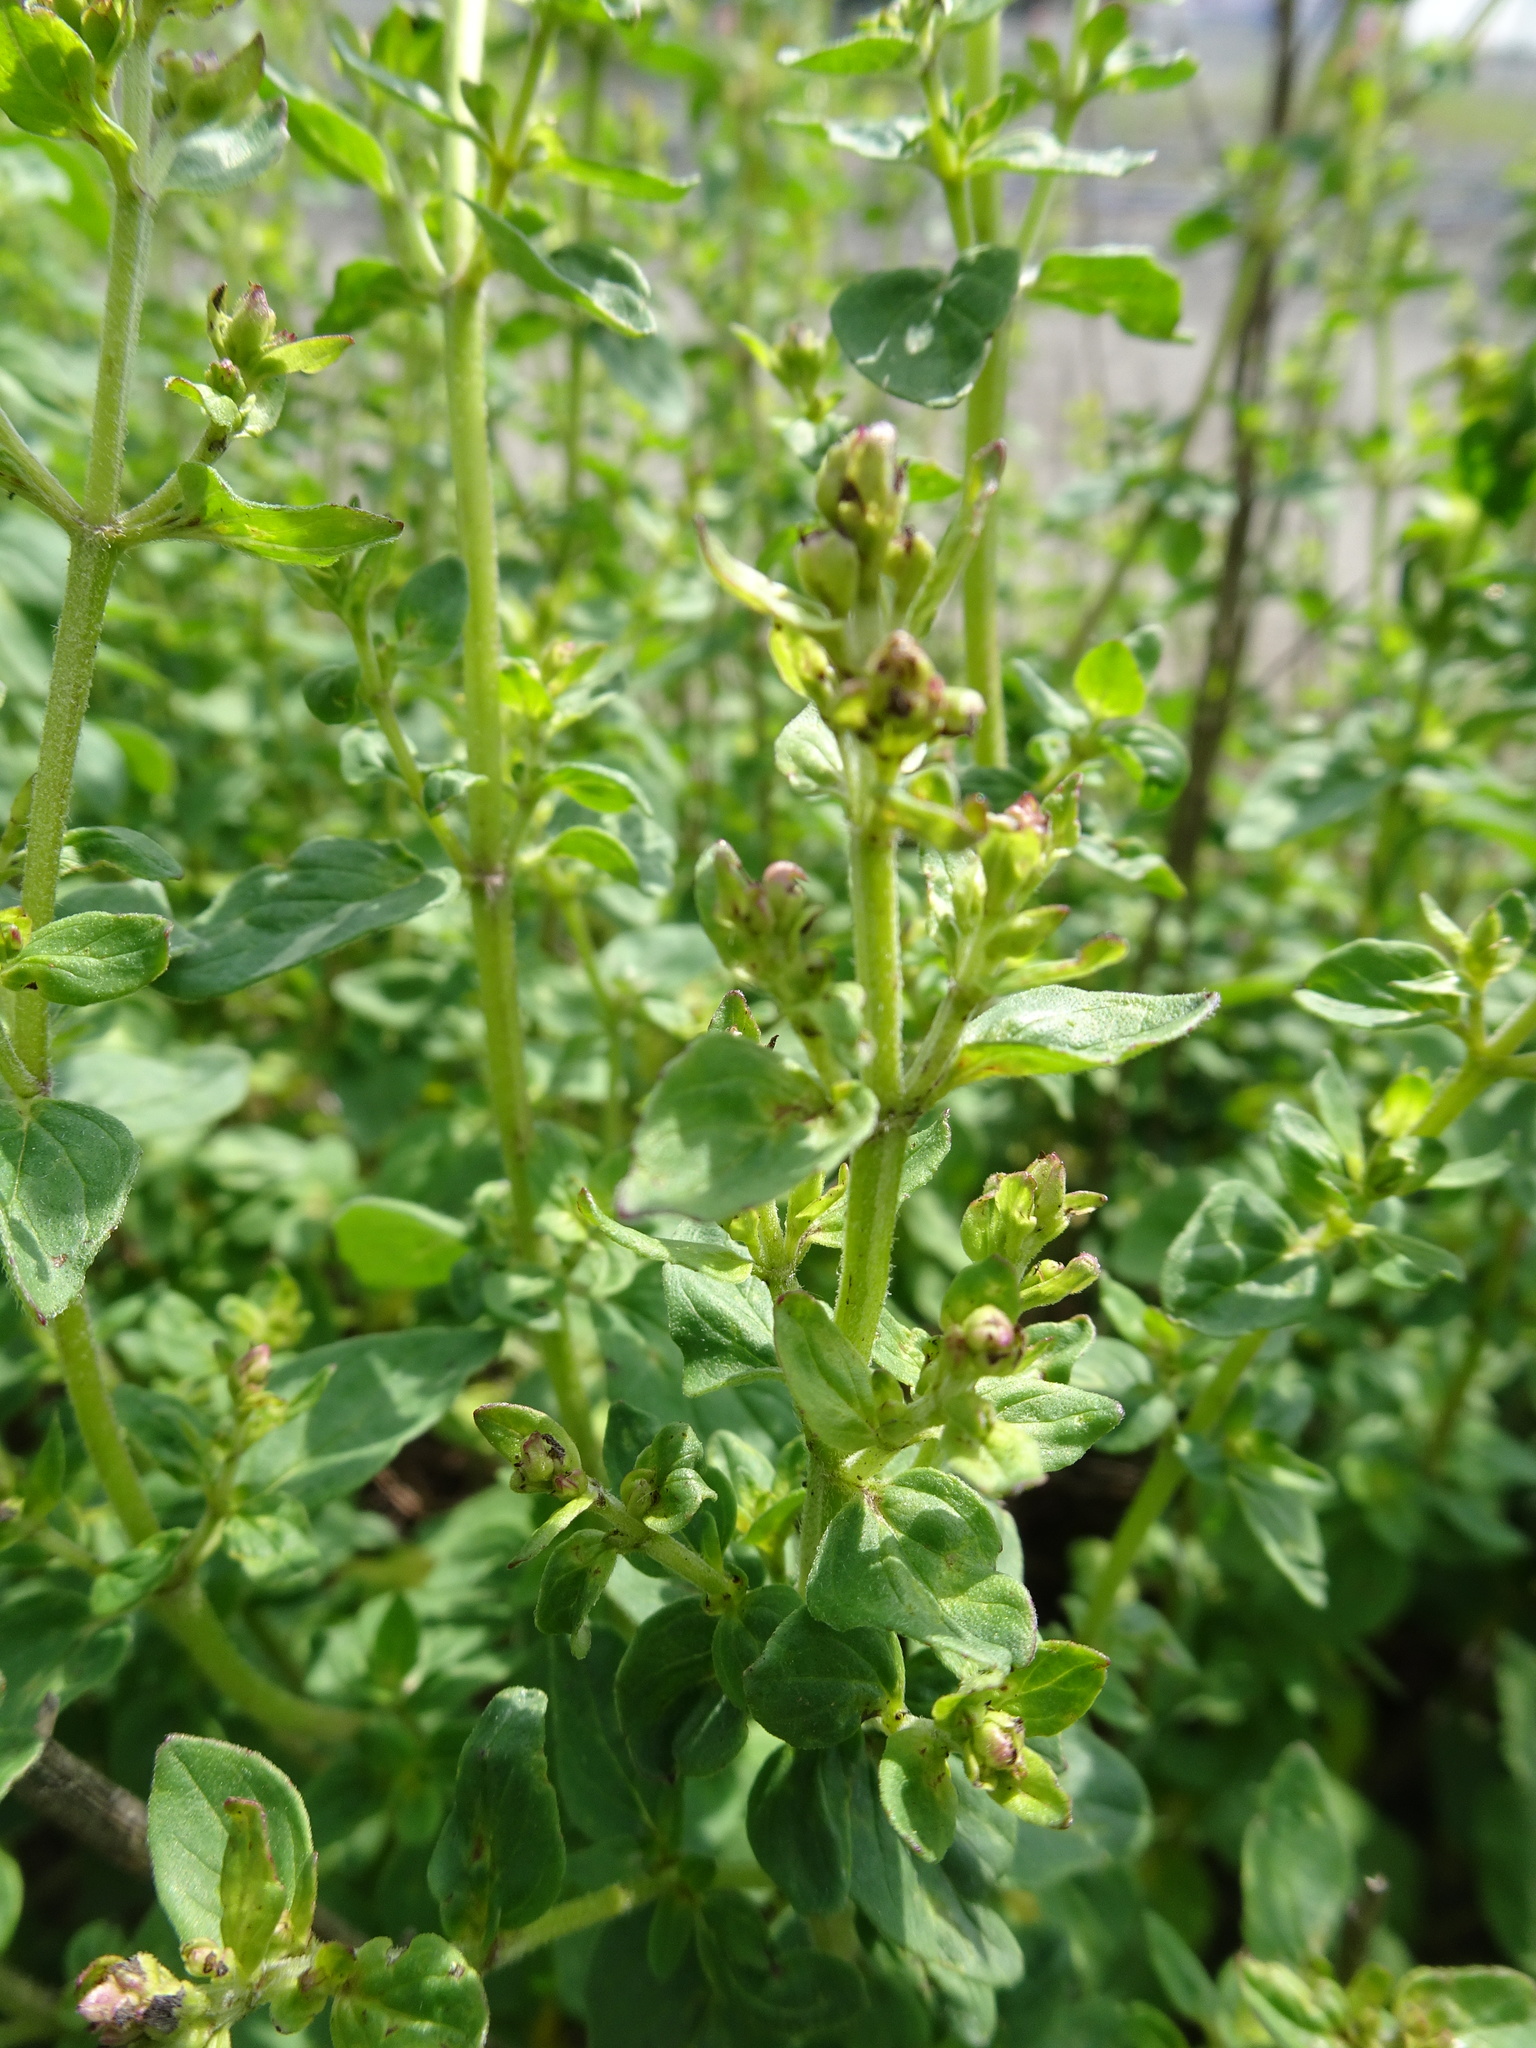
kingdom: Plantae
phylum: Tracheophyta
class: Magnoliopsida
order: Lamiales
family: Lamiaceae
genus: Origanum
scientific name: Origanum vulgare
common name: Wild marjoram
